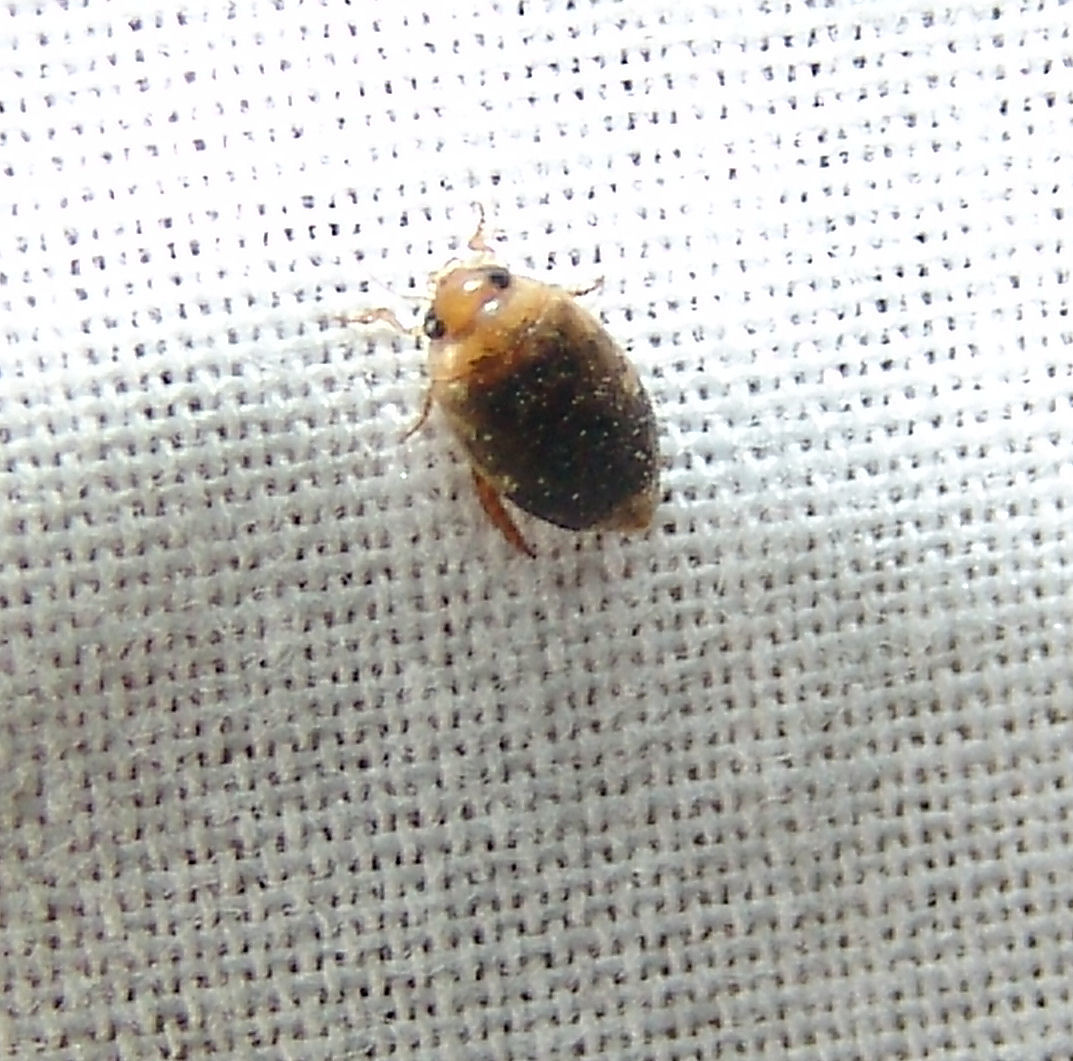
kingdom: Animalia
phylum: Arthropoda
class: Insecta
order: Coleoptera
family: Dytiscidae
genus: Laccophilus
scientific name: Laccophilus
